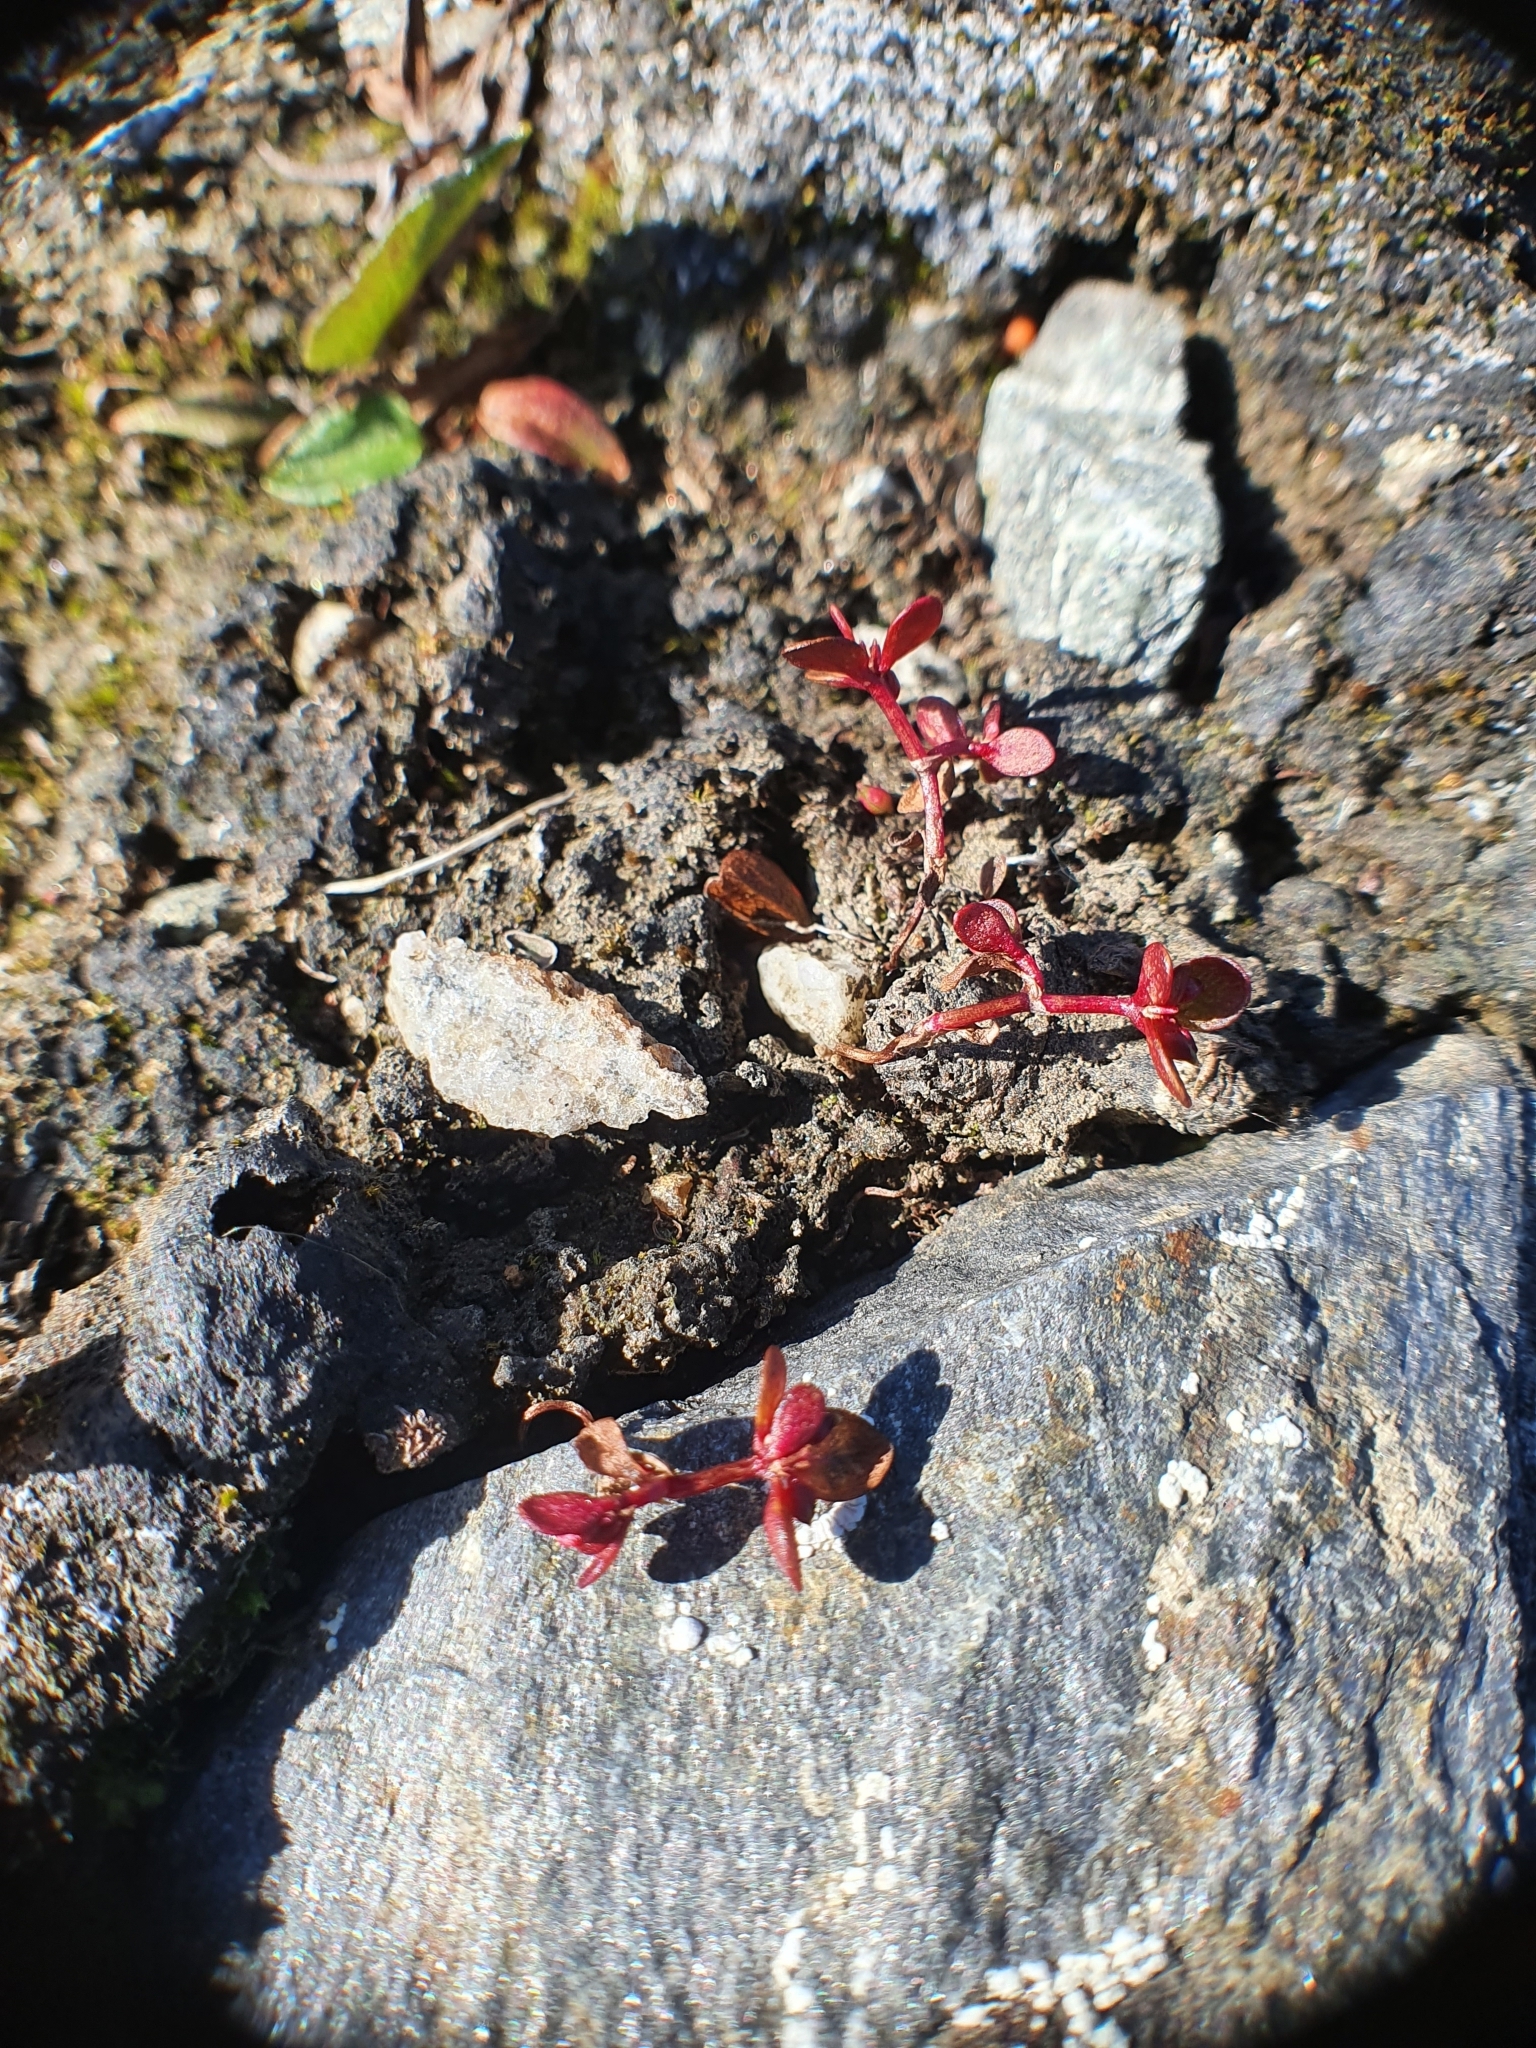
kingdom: Plantae
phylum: Tracheophyta
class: Magnoliopsida
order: Caryophyllales
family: Polygonaceae
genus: Koenigia
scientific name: Koenigia islandica
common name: Iceland-purslane
